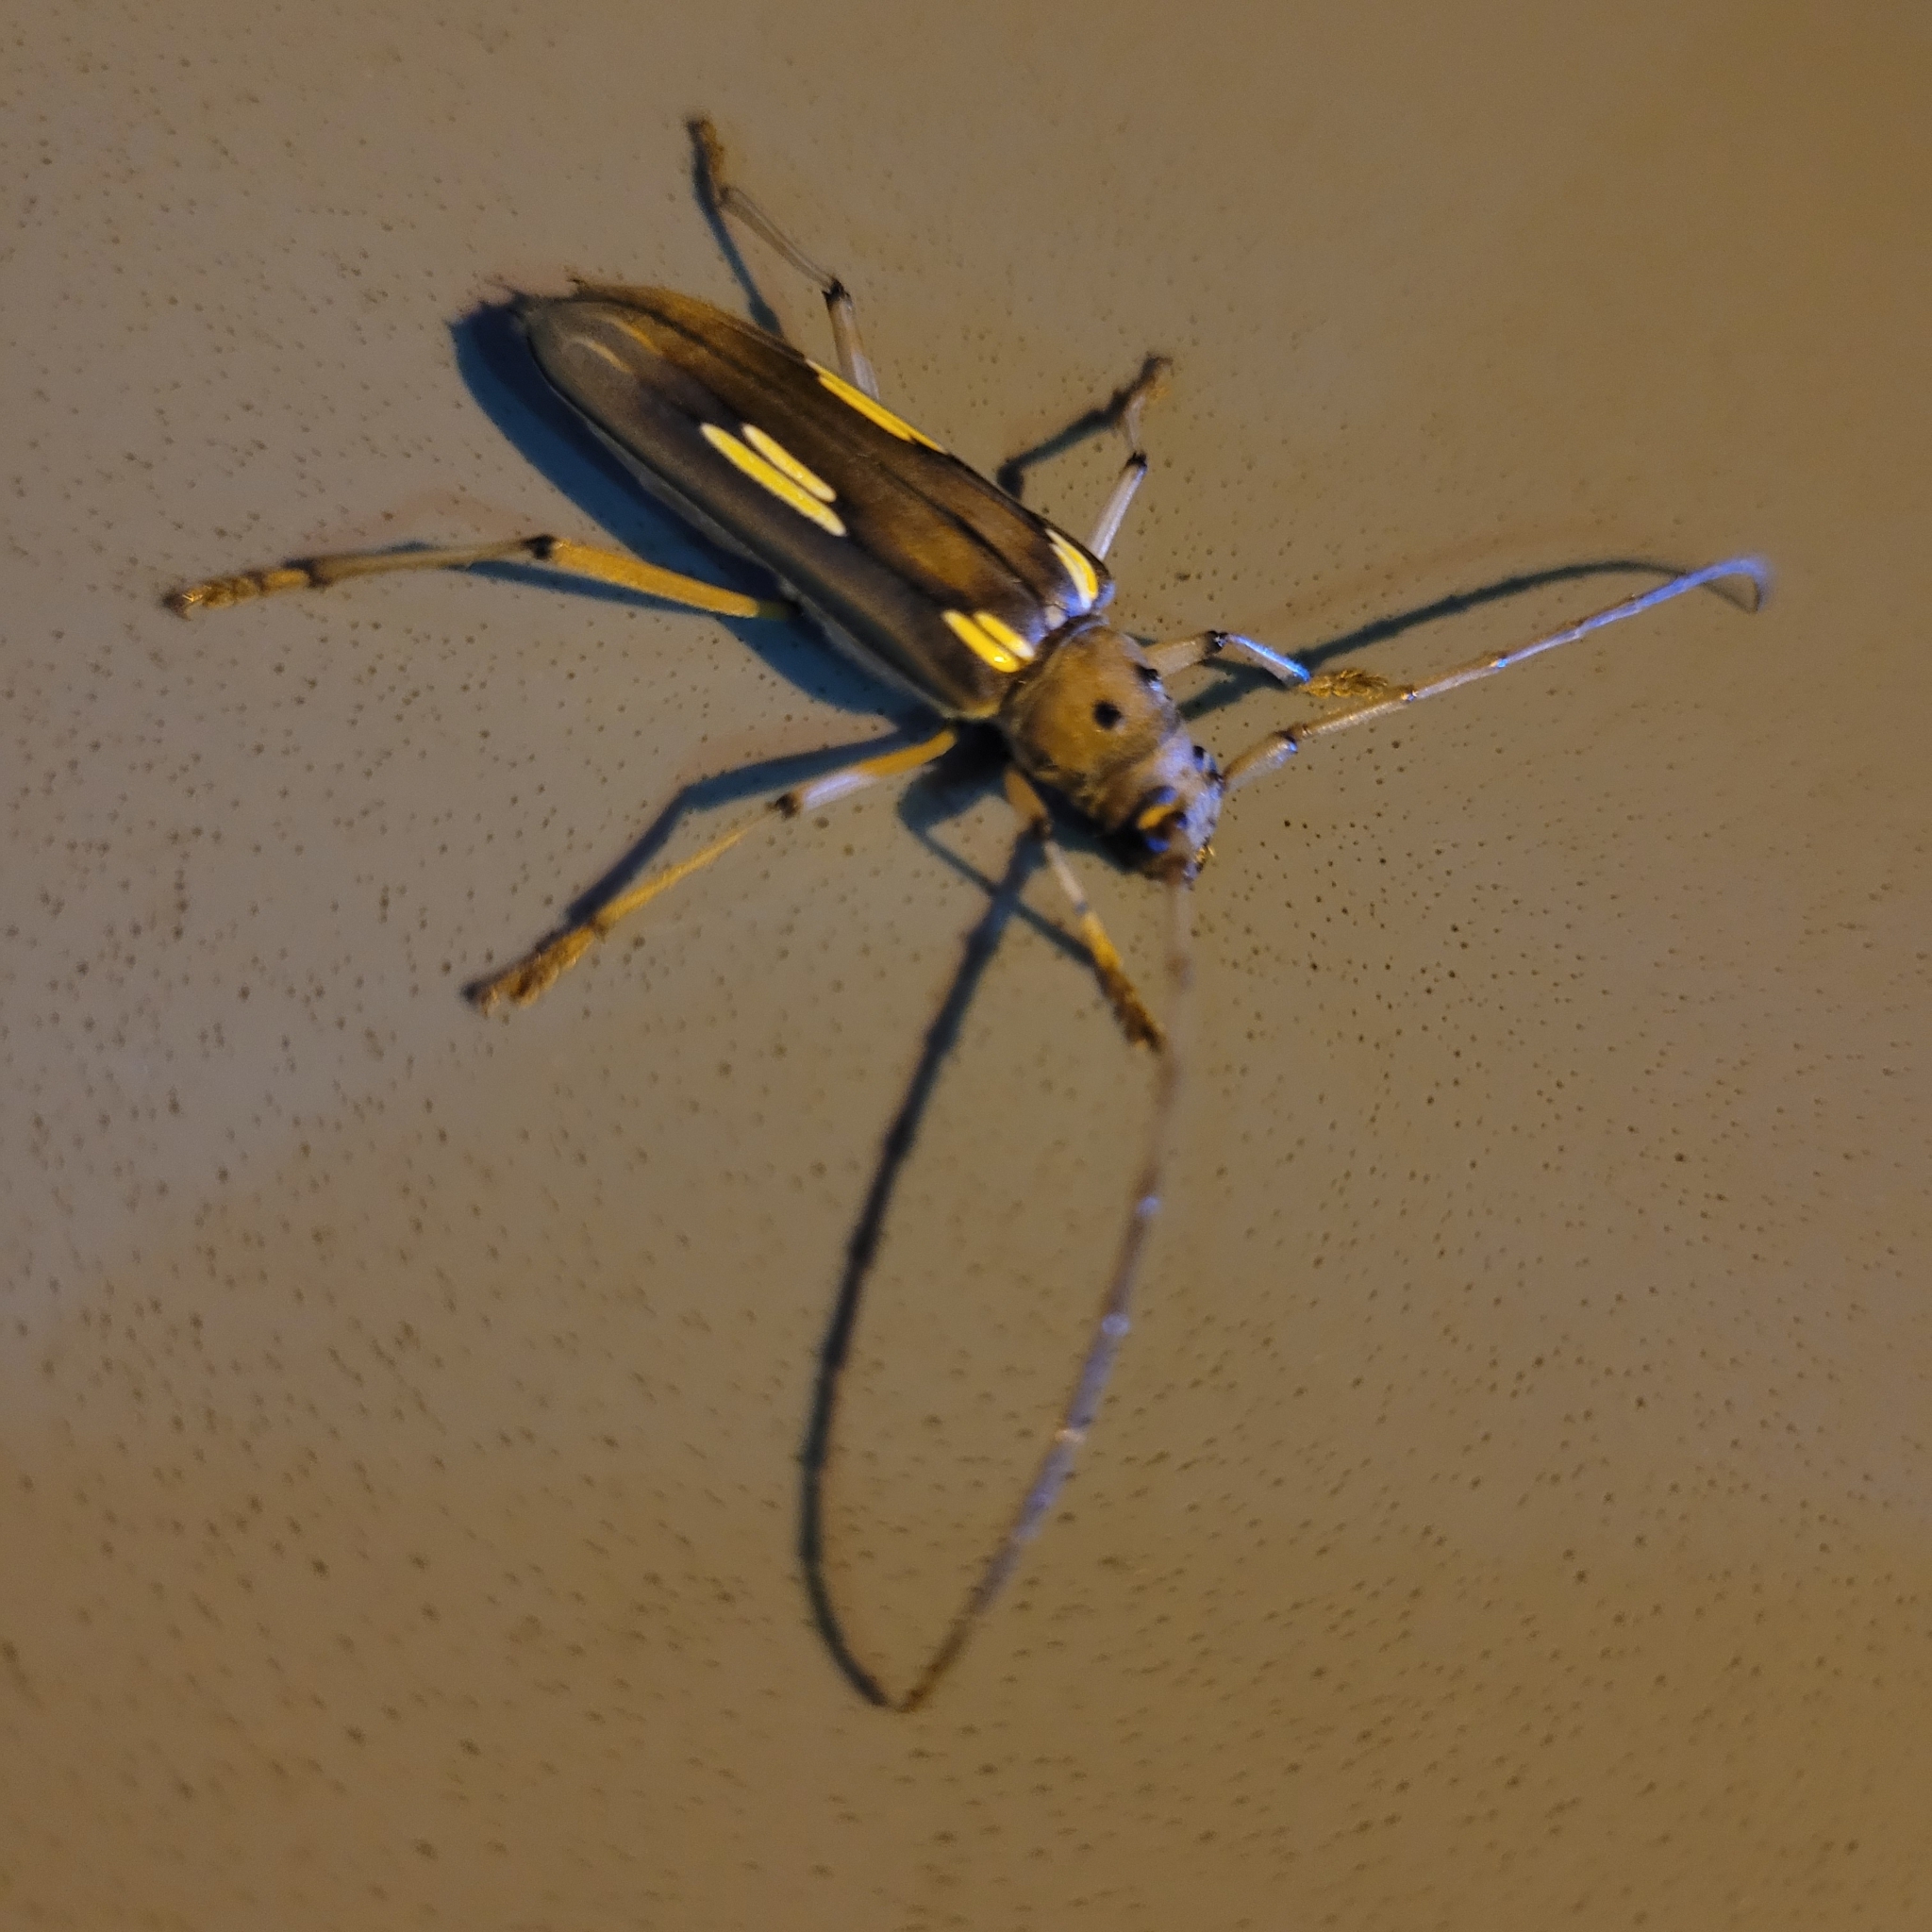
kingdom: Animalia
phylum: Arthropoda
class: Insecta
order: Coleoptera
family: Cerambycidae
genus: Pantomallus
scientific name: Pantomallus pallidus
